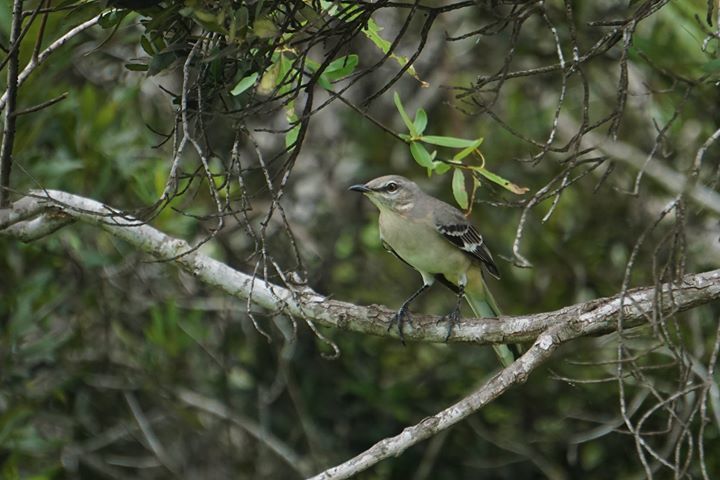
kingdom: Animalia
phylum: Chordata
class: Aves
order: Passeriformes
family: Mimidae
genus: Mimus
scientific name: Mimus polyglottos
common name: Northern mockingbird
